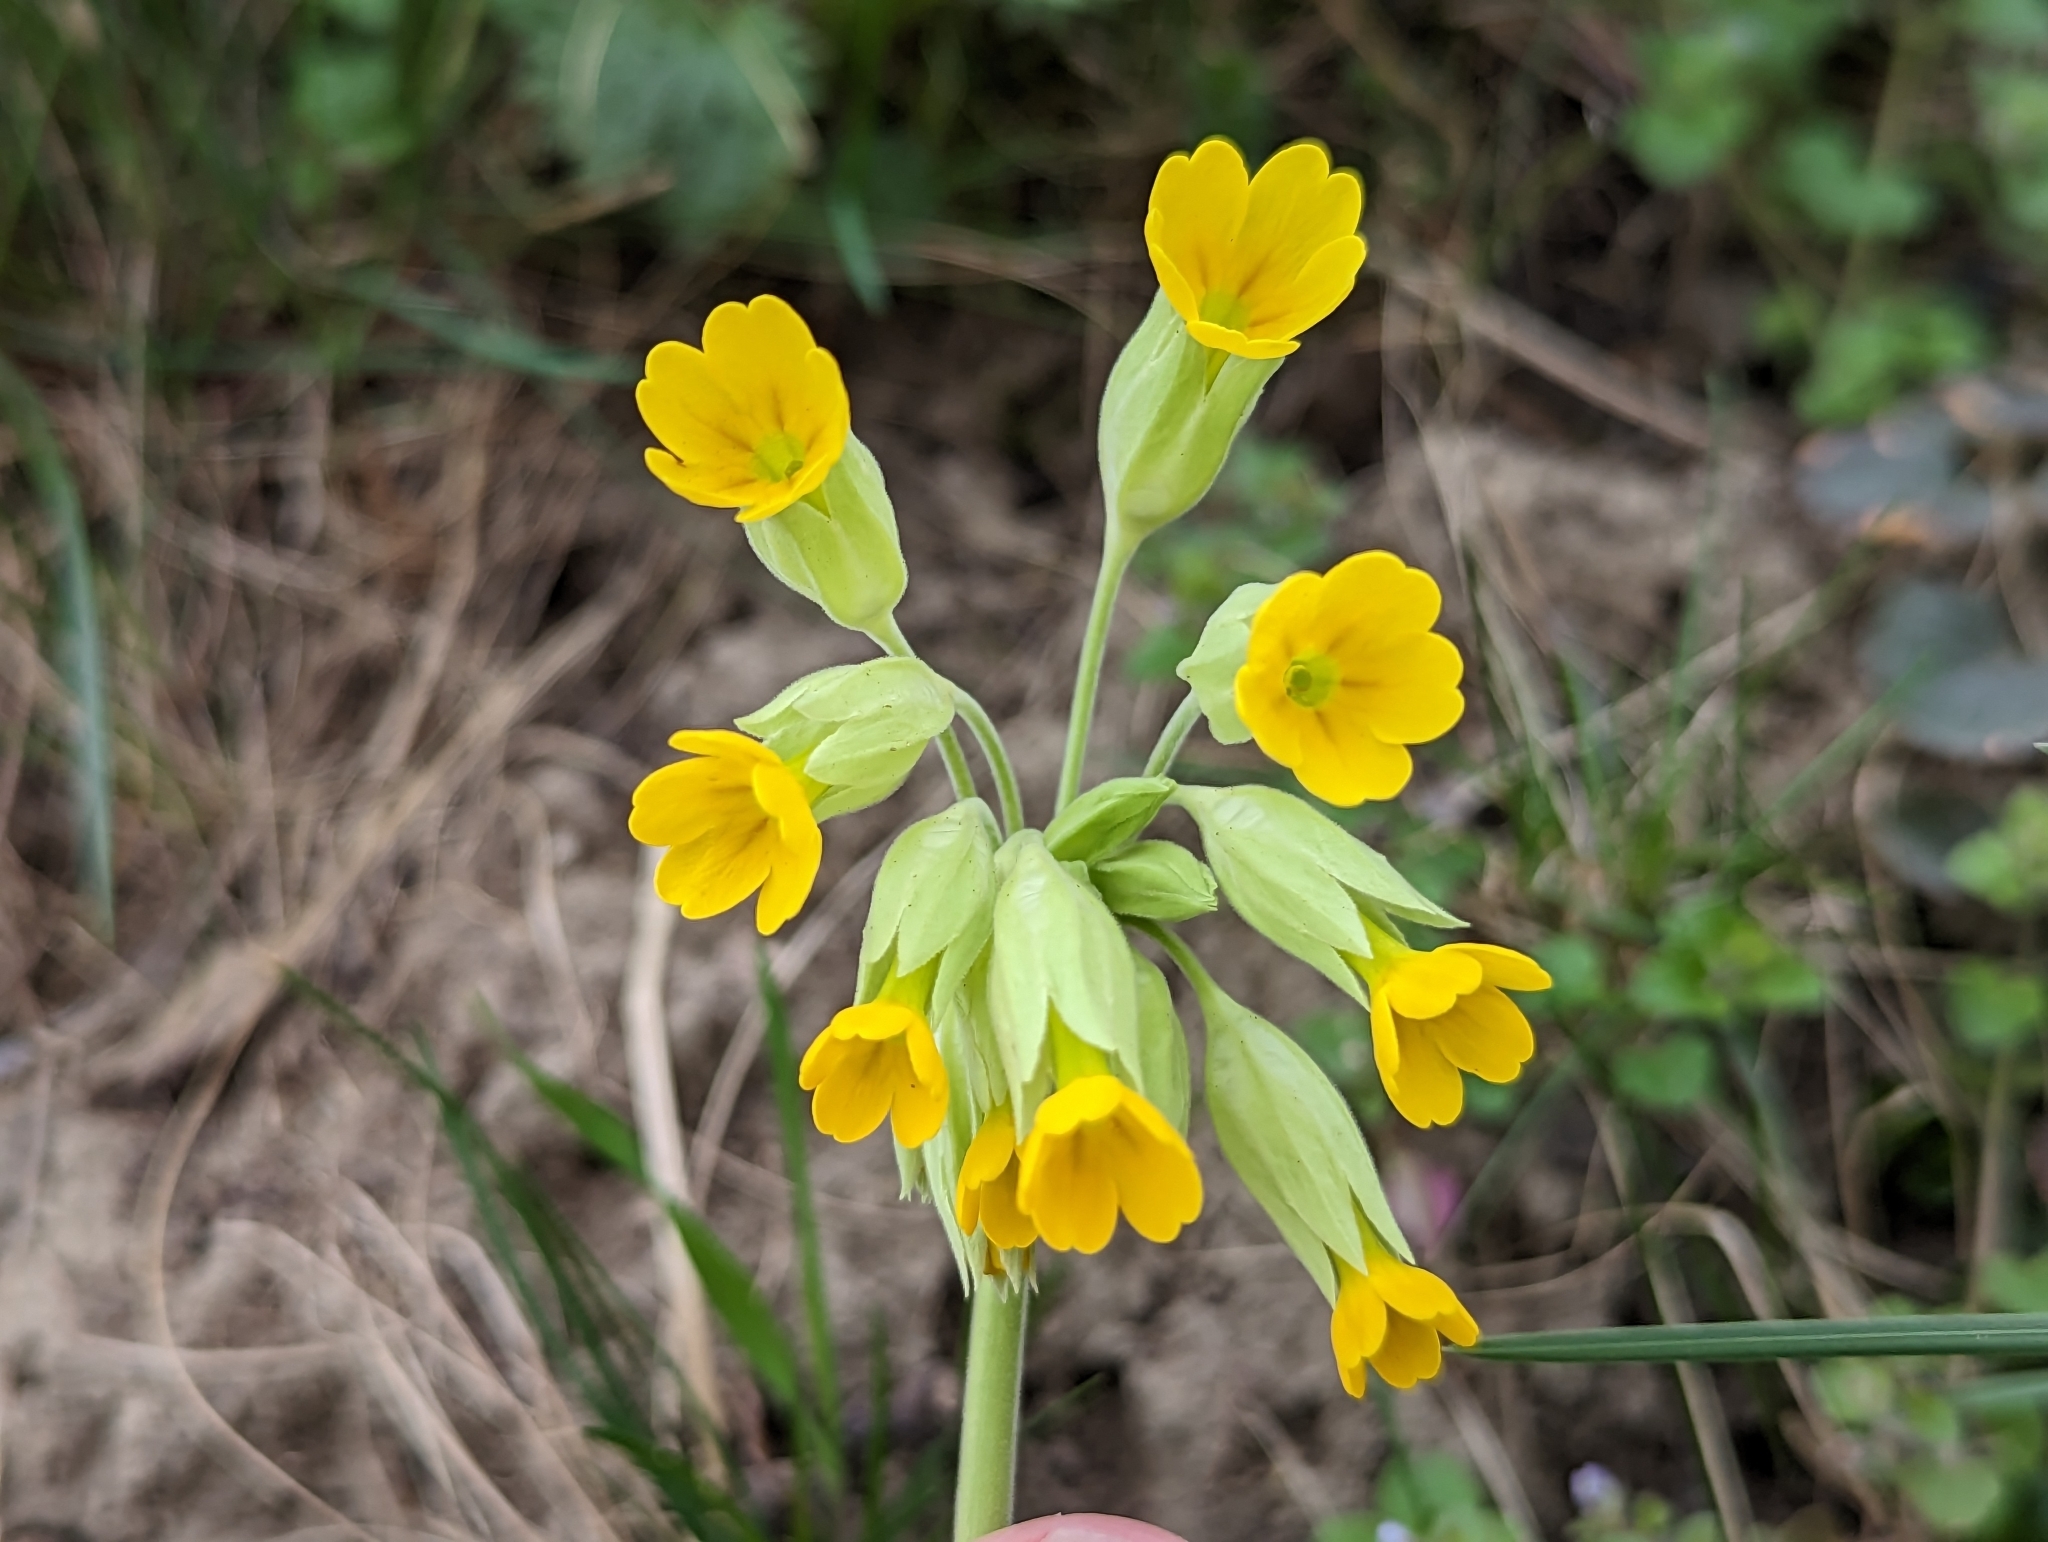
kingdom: Plantae
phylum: Tracheophyta
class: Magnoliopsida
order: Ericales
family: Primulaceae
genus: Primula
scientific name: Primula veris
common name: Cowslip
